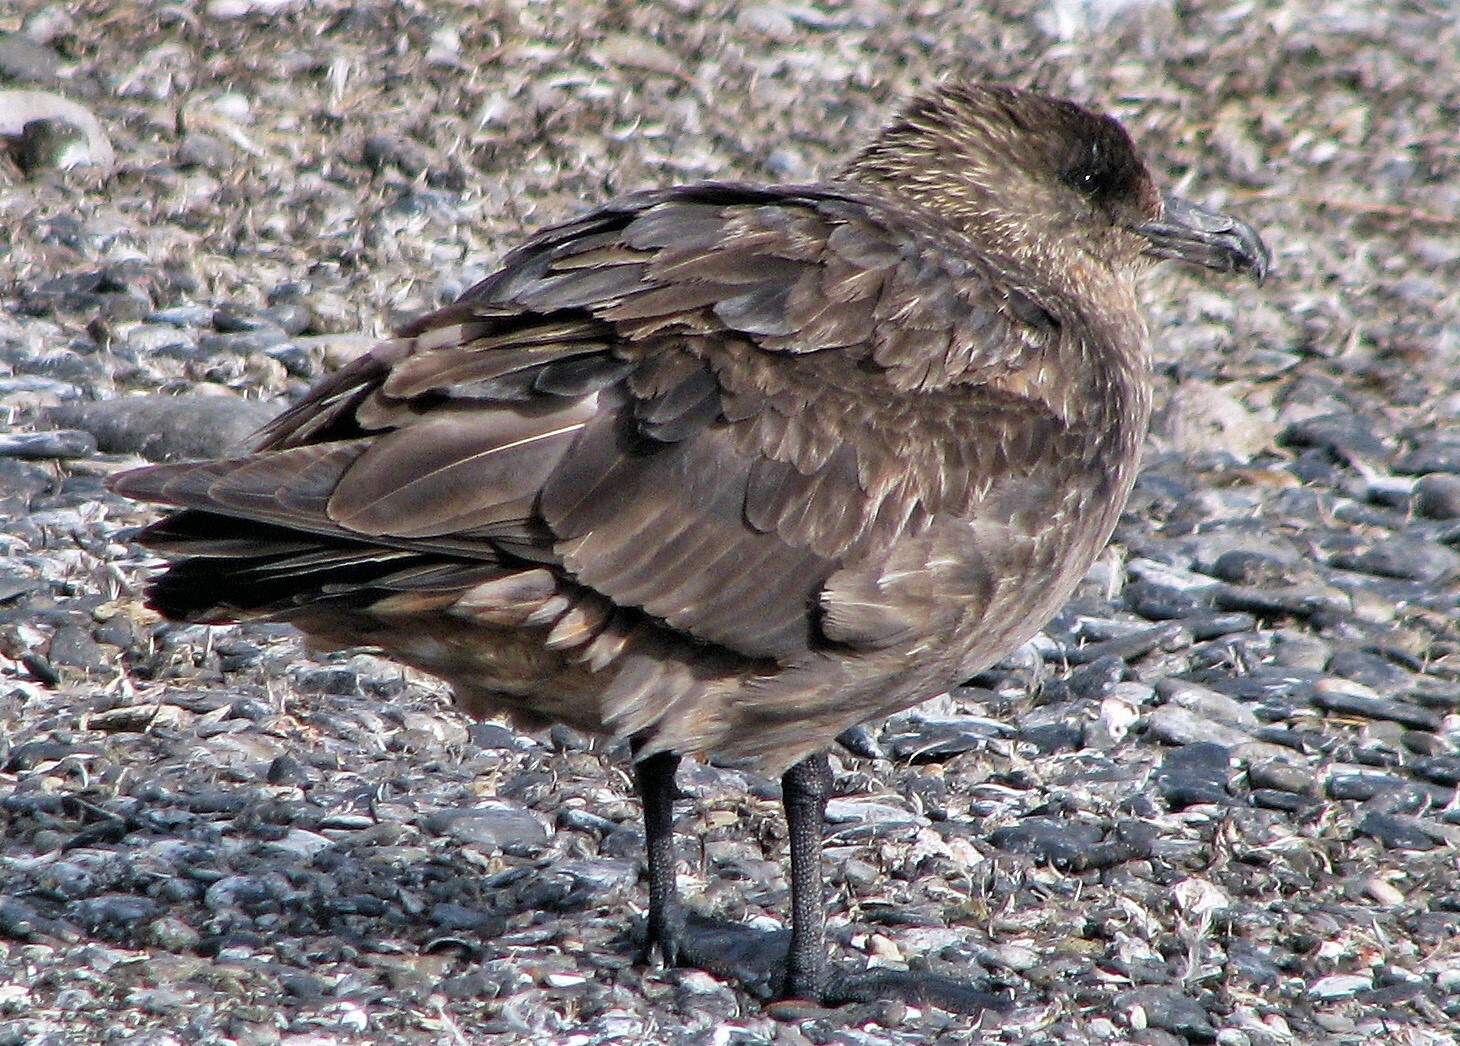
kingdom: Animalia
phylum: Chordata
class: Aves
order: Charadriiformes
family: Stercorariidae
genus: Stercorarius
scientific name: Stercorarius chilensis
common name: Chilean skua
